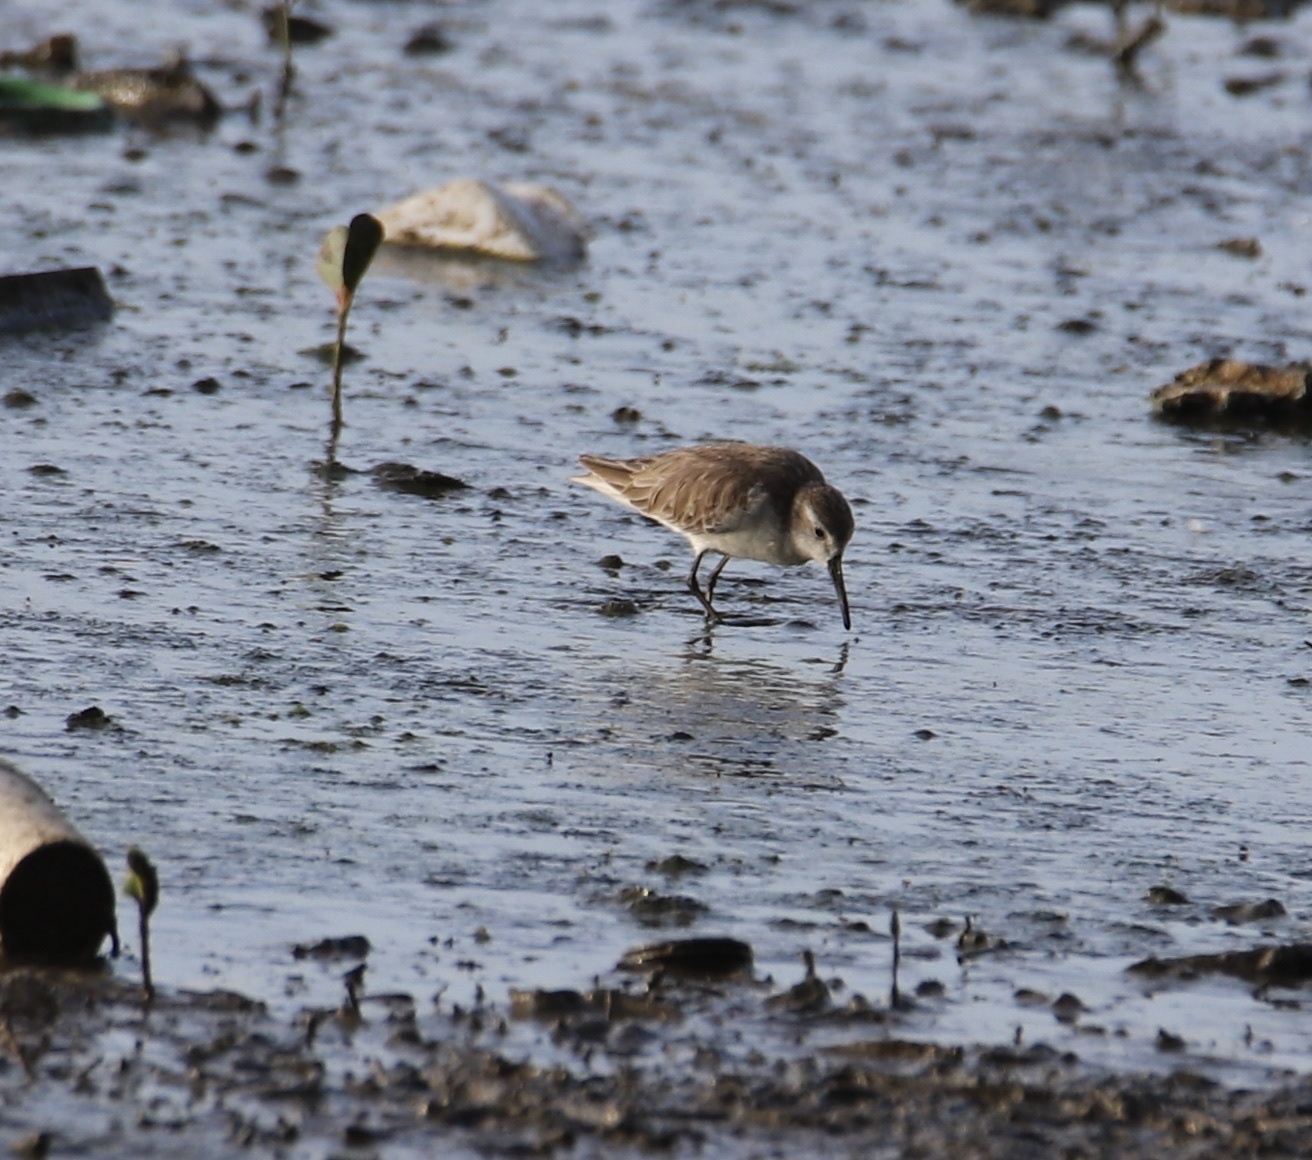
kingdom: Animalia
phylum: Chordata
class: Aves
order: Charadriiformes
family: Scolopacidae
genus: Calidris
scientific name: Calidris alpina
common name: Dunlin
